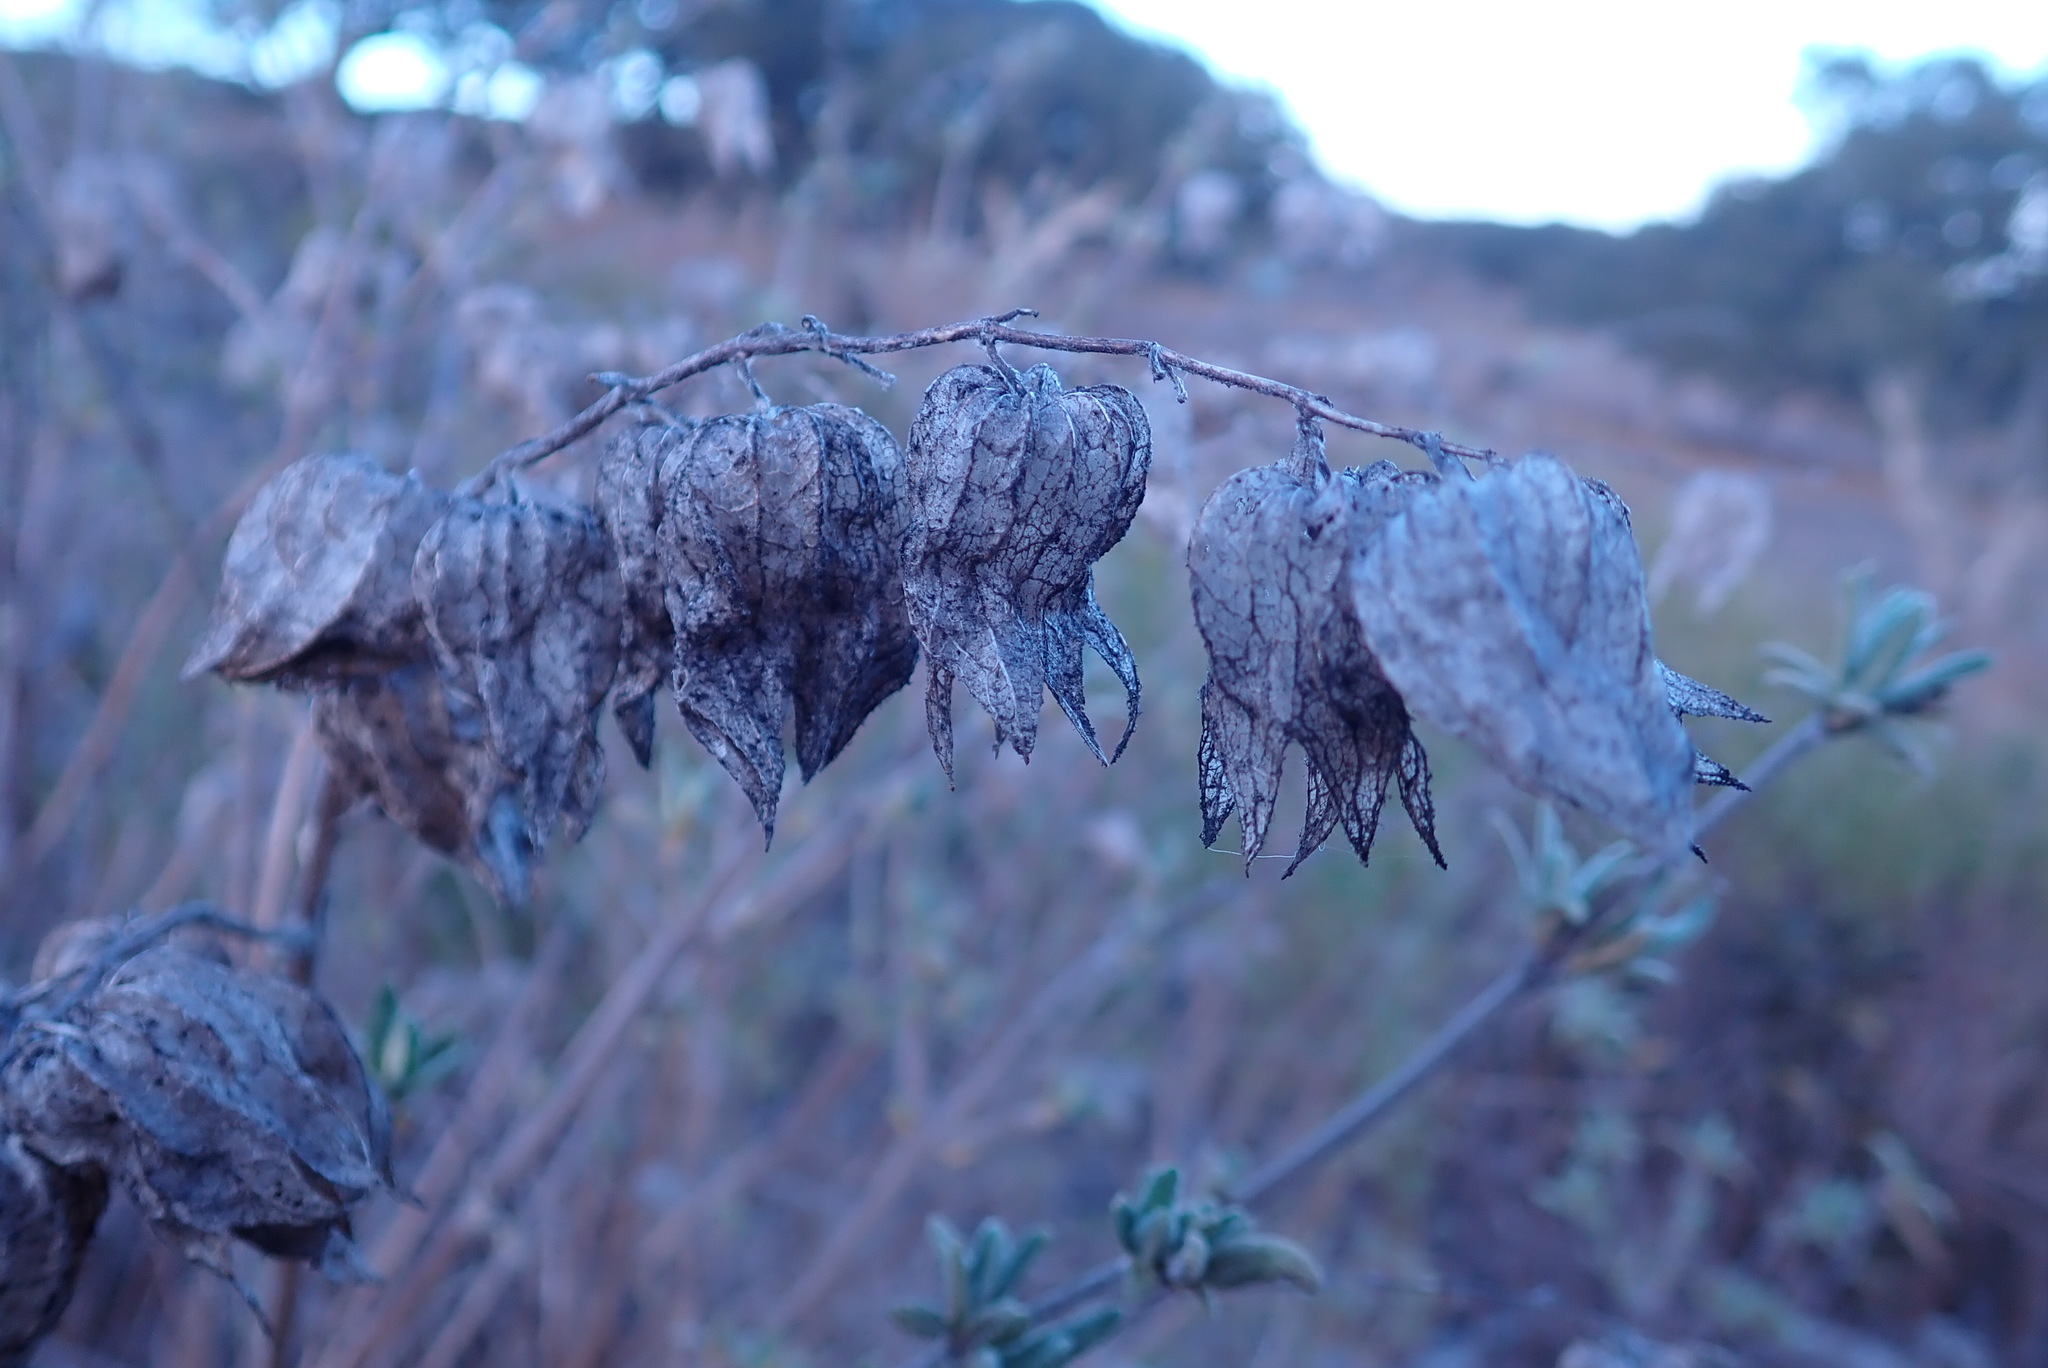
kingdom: Plantae
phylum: Tracheophyta
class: Magnoliopsida
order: Lamiales
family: Lamiaceae
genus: Lepechinia
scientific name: Lepechinia calycina
